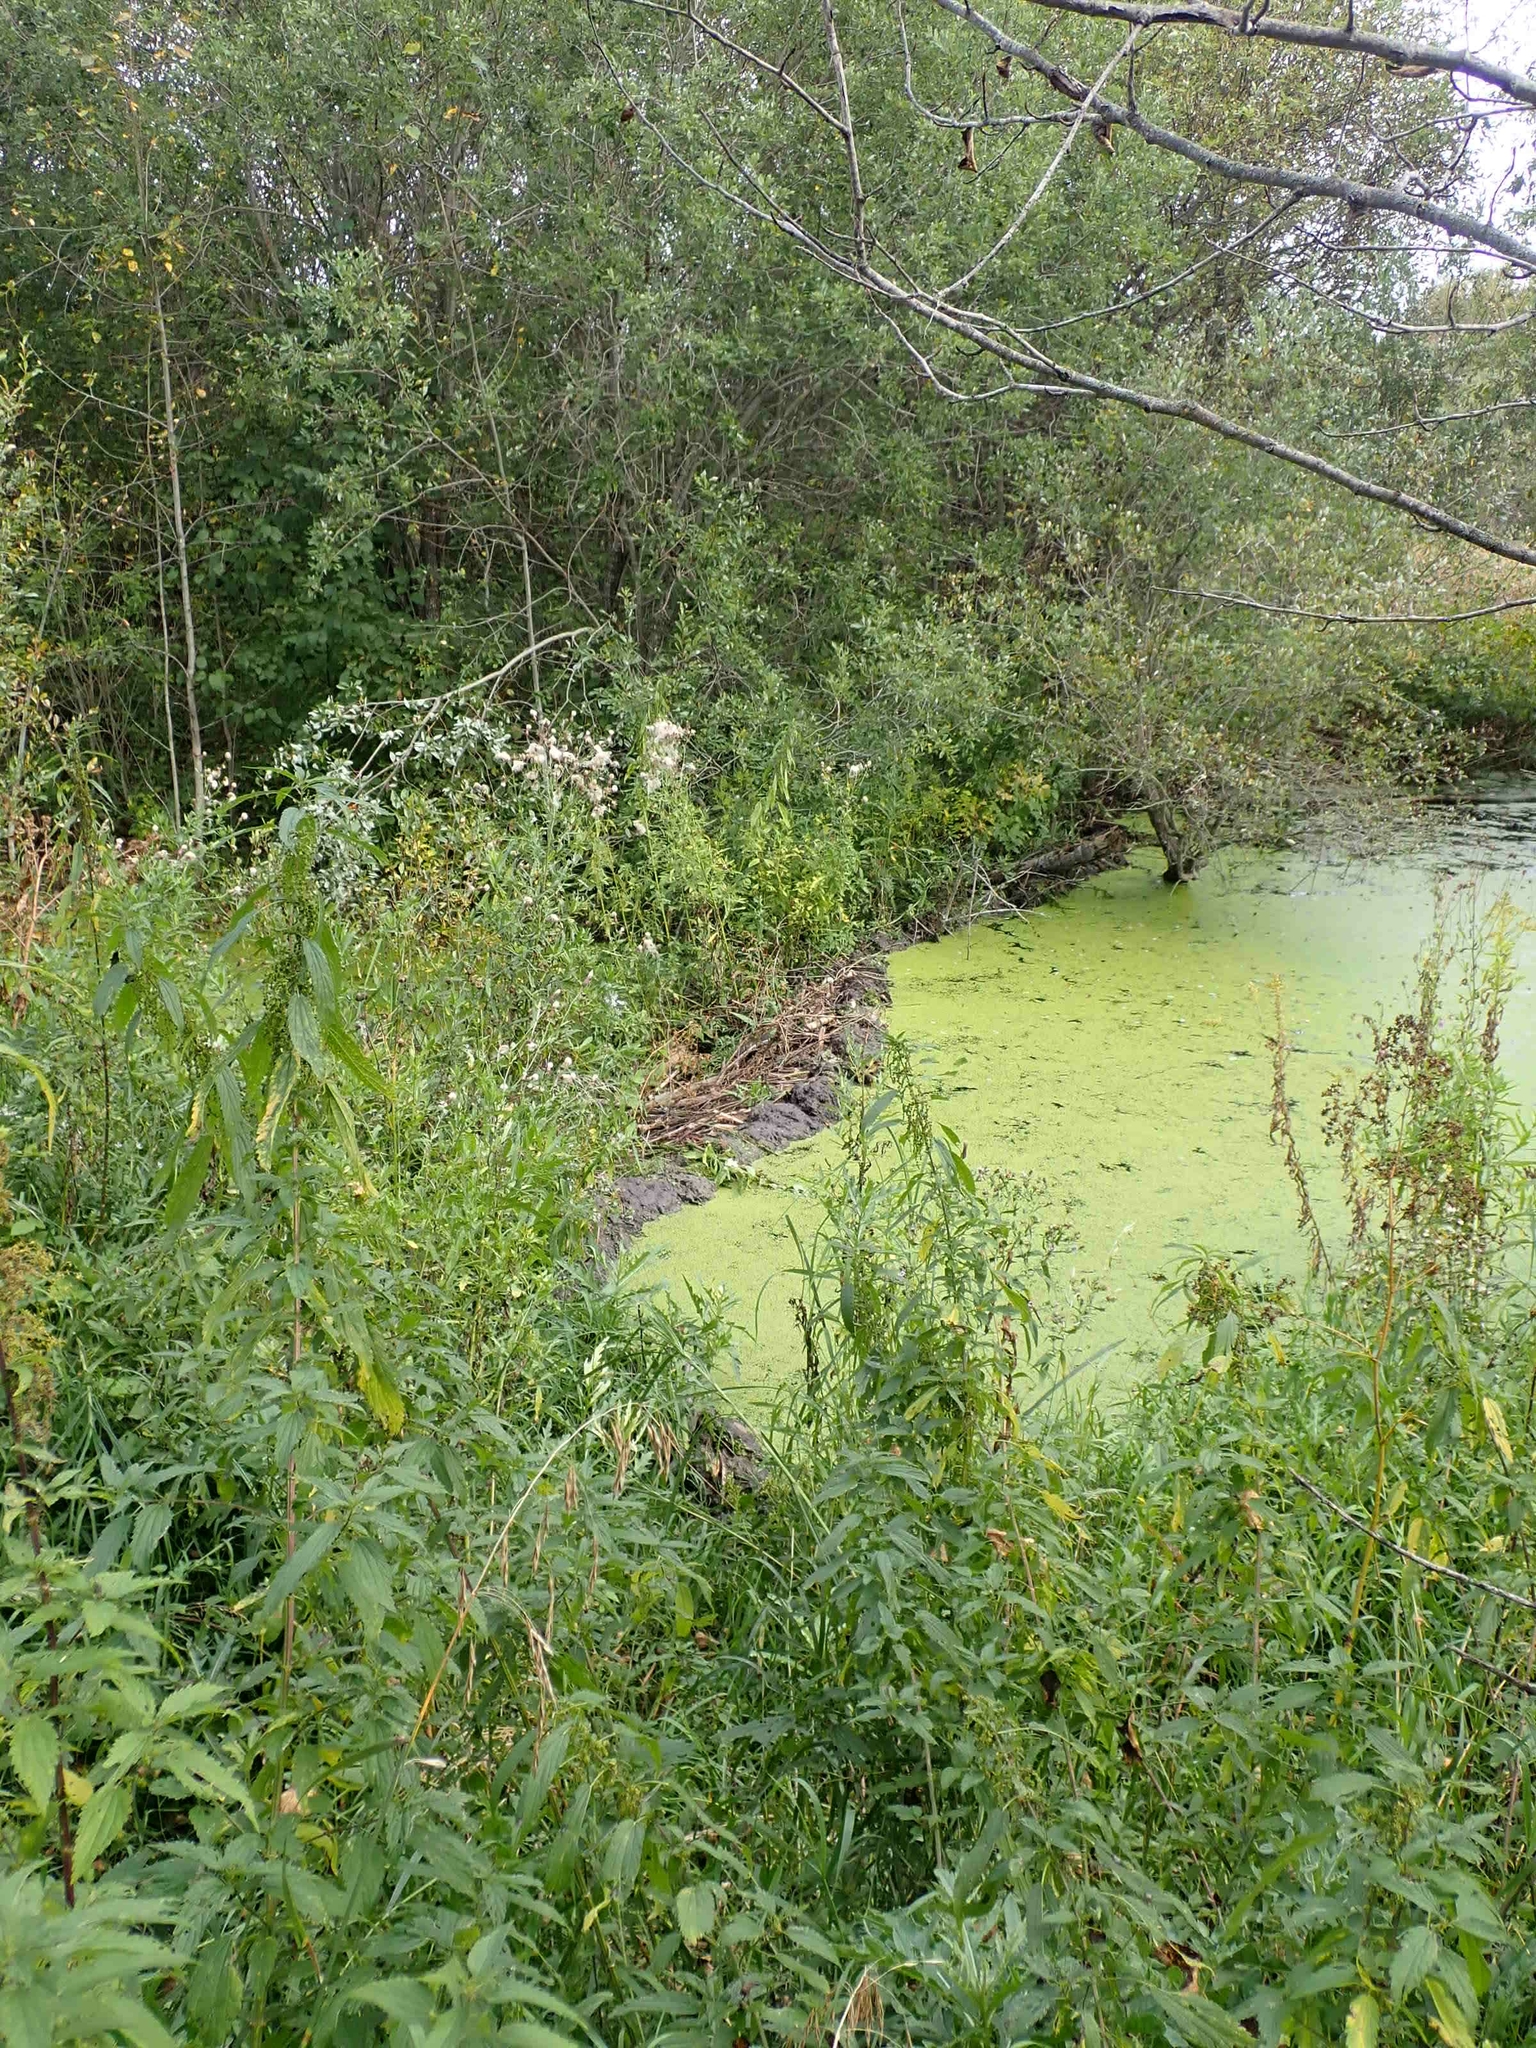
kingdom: Animalia
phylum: Chordata
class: Mammalia
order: Rodentia
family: Castoridae
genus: Castor
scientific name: Castor canadensis
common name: American beaver
